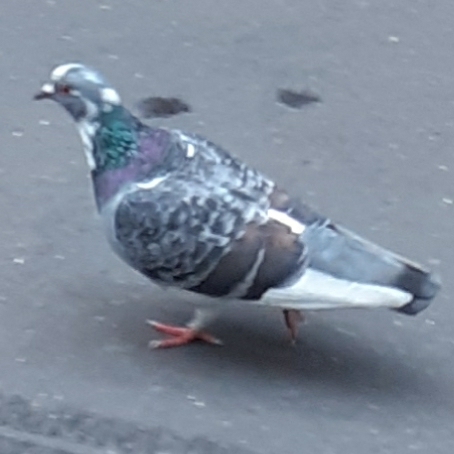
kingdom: Animalia
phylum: Chordata
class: Aves
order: Columbiformes
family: Columbidae
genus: Columba
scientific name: Columba livia
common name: Rock pigeon
